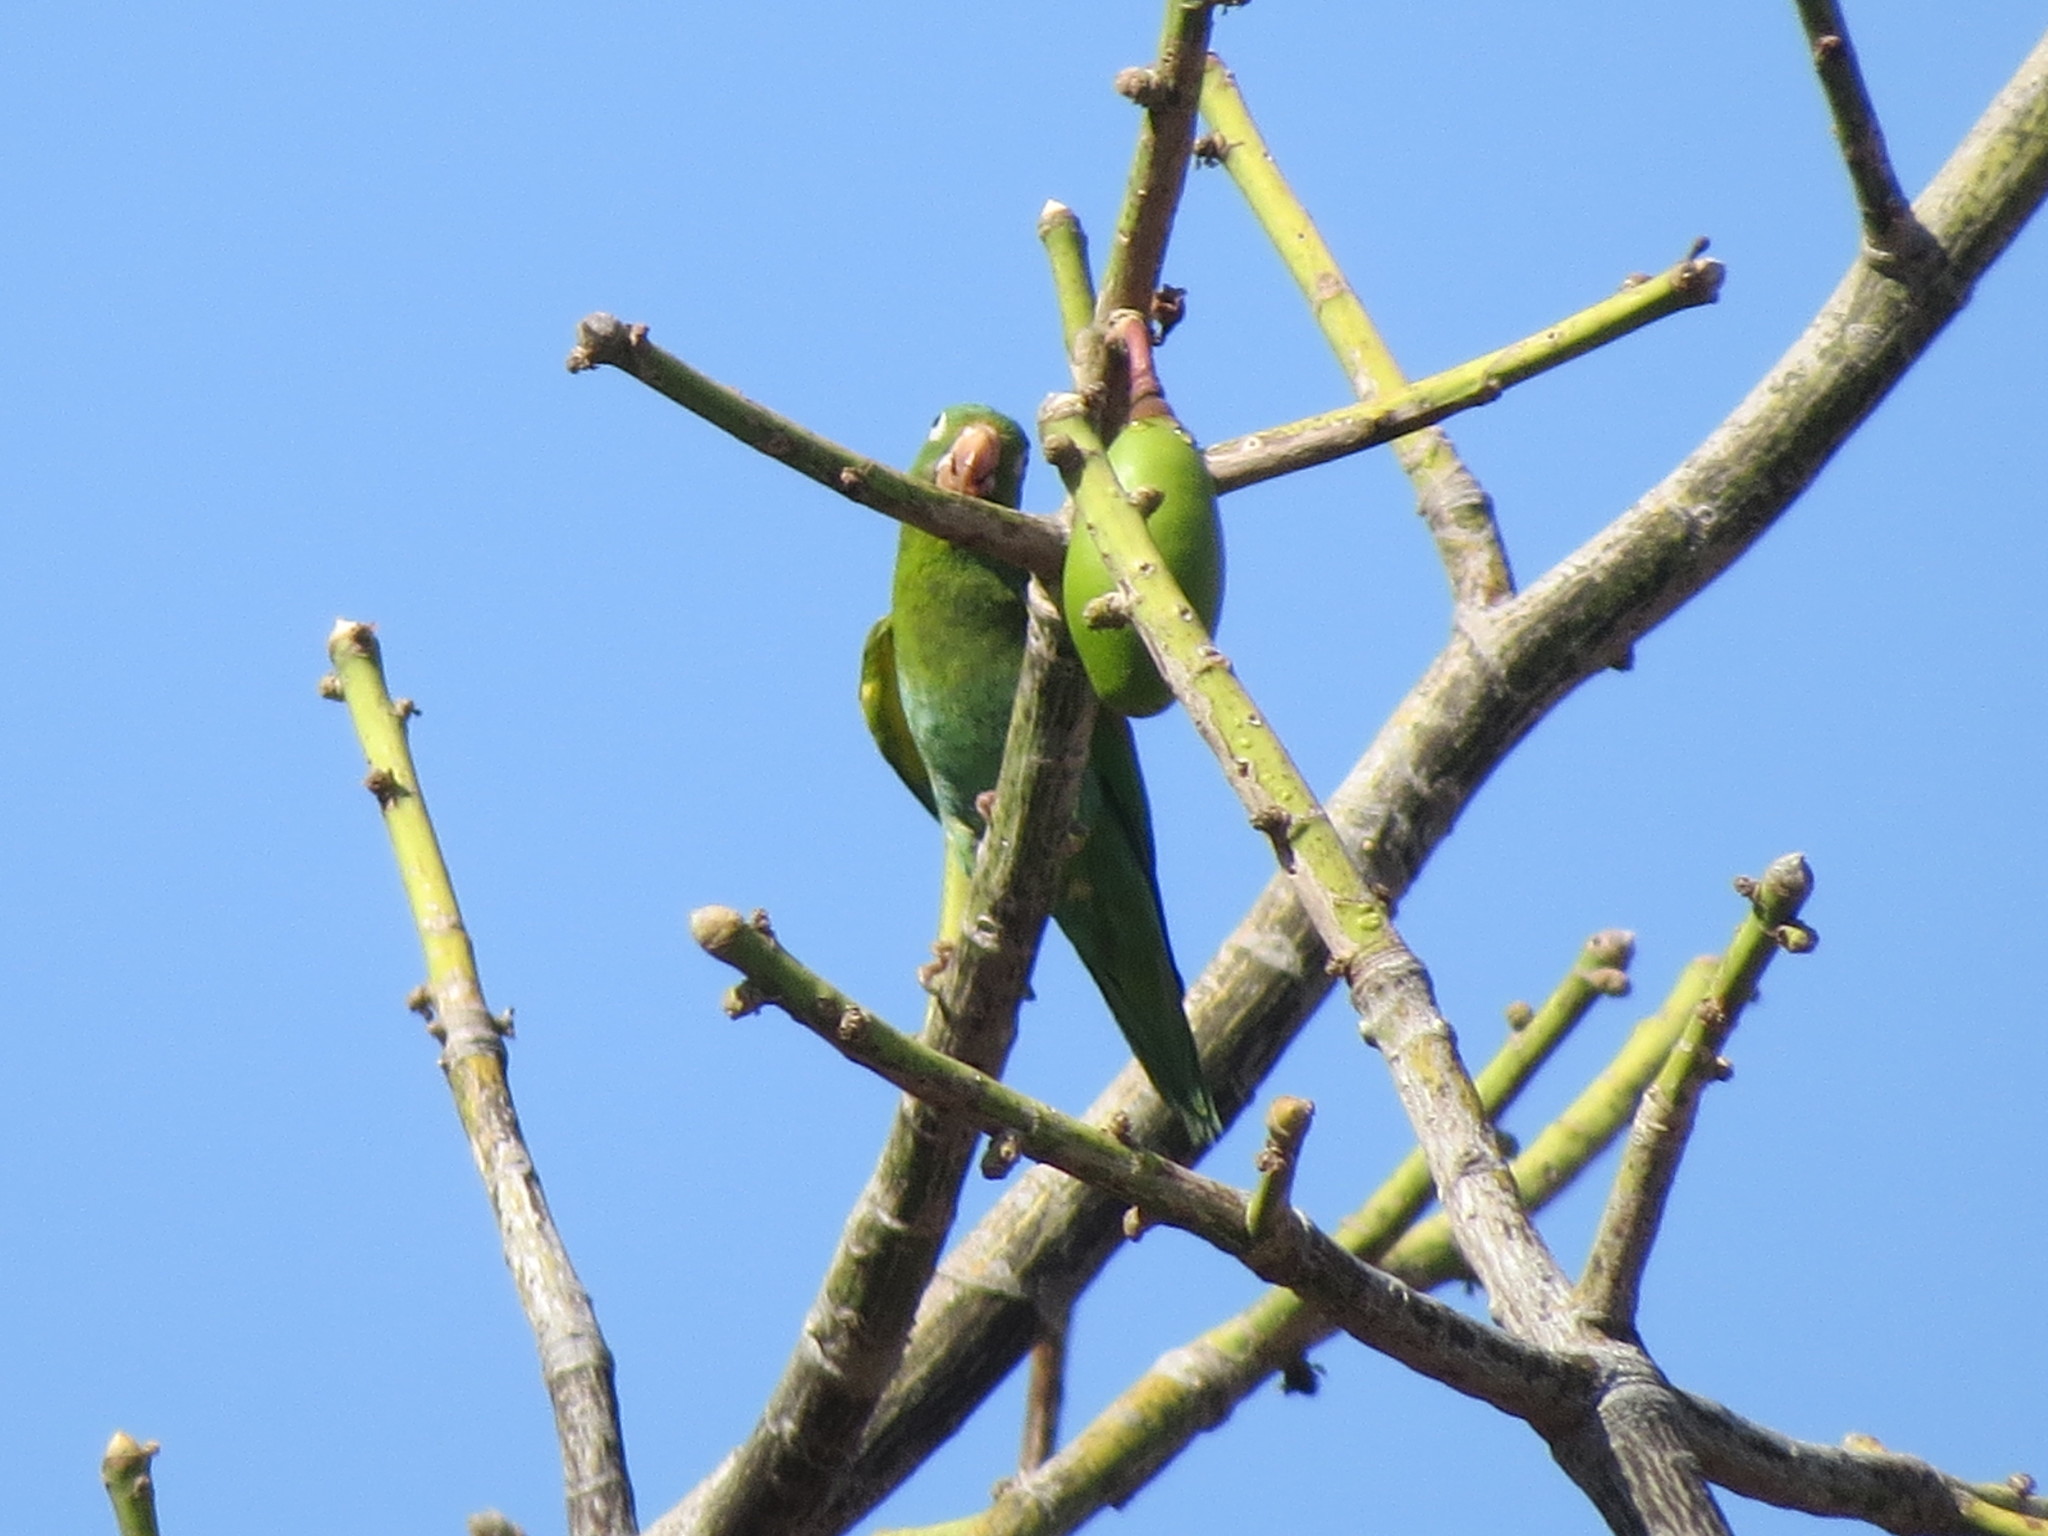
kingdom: Animalia
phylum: Chordata
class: Aves
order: Psittaciformes
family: Psittacidae
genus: Brotogeris
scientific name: Brotogeris jugularis
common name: Orange-chinned parakeet
